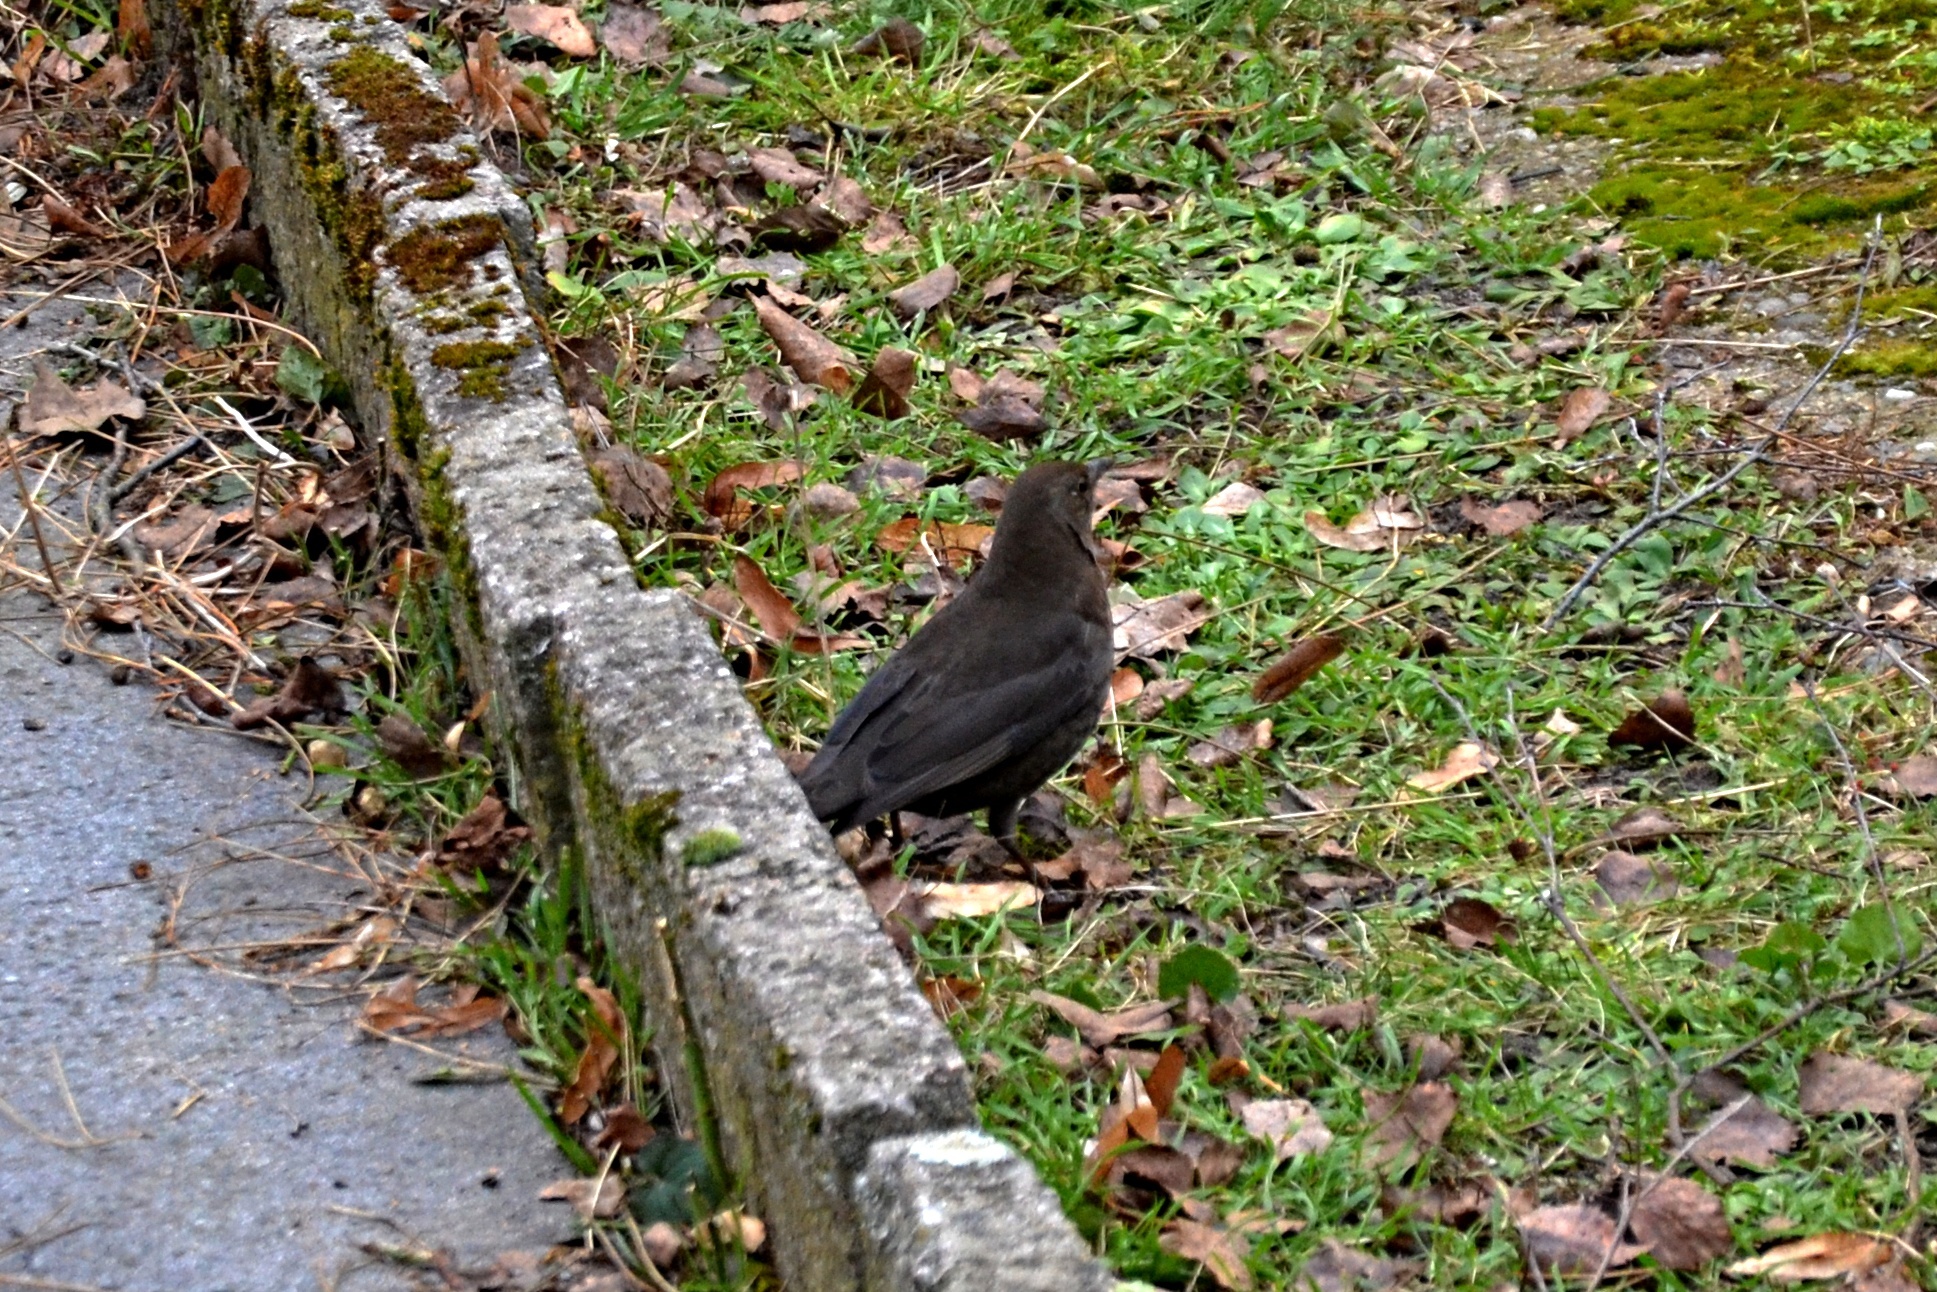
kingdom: Animalia
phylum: Chordata
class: Aves
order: Passeriformes
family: Turdidae
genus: Turdus
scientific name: Turdus merula
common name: Common blackbird
